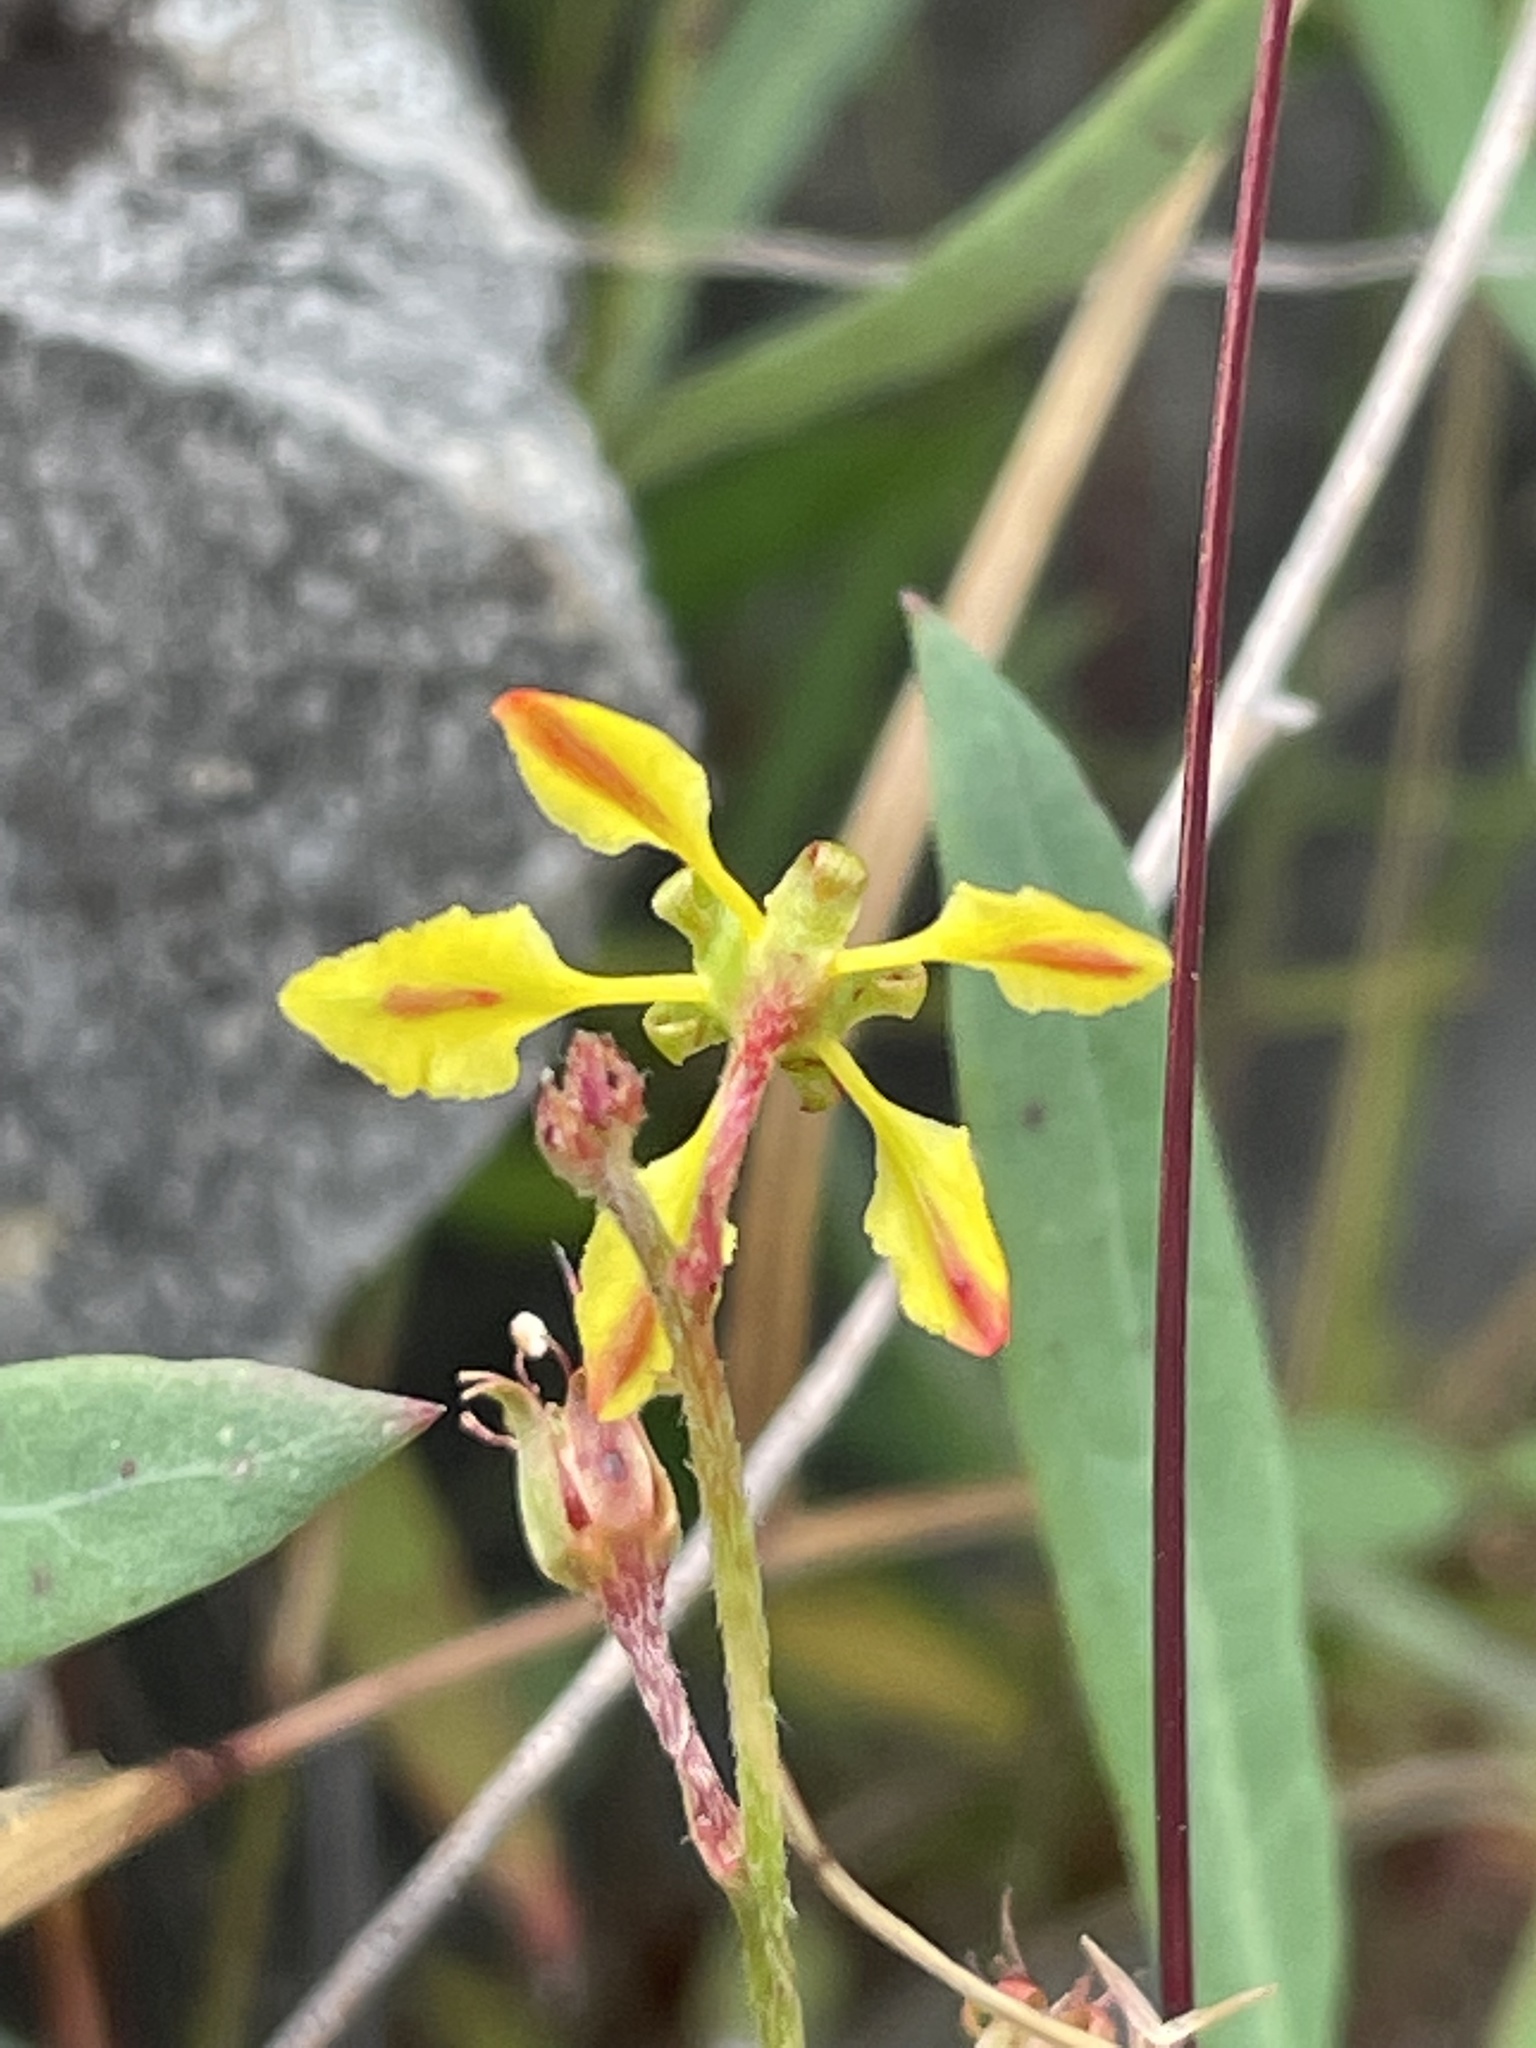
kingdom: Plantae
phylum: Tracheophyta
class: Magnoliopsida
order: Malpighiales
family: Malpighiaceae
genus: Galphimia
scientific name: Galphimia angustifolia
